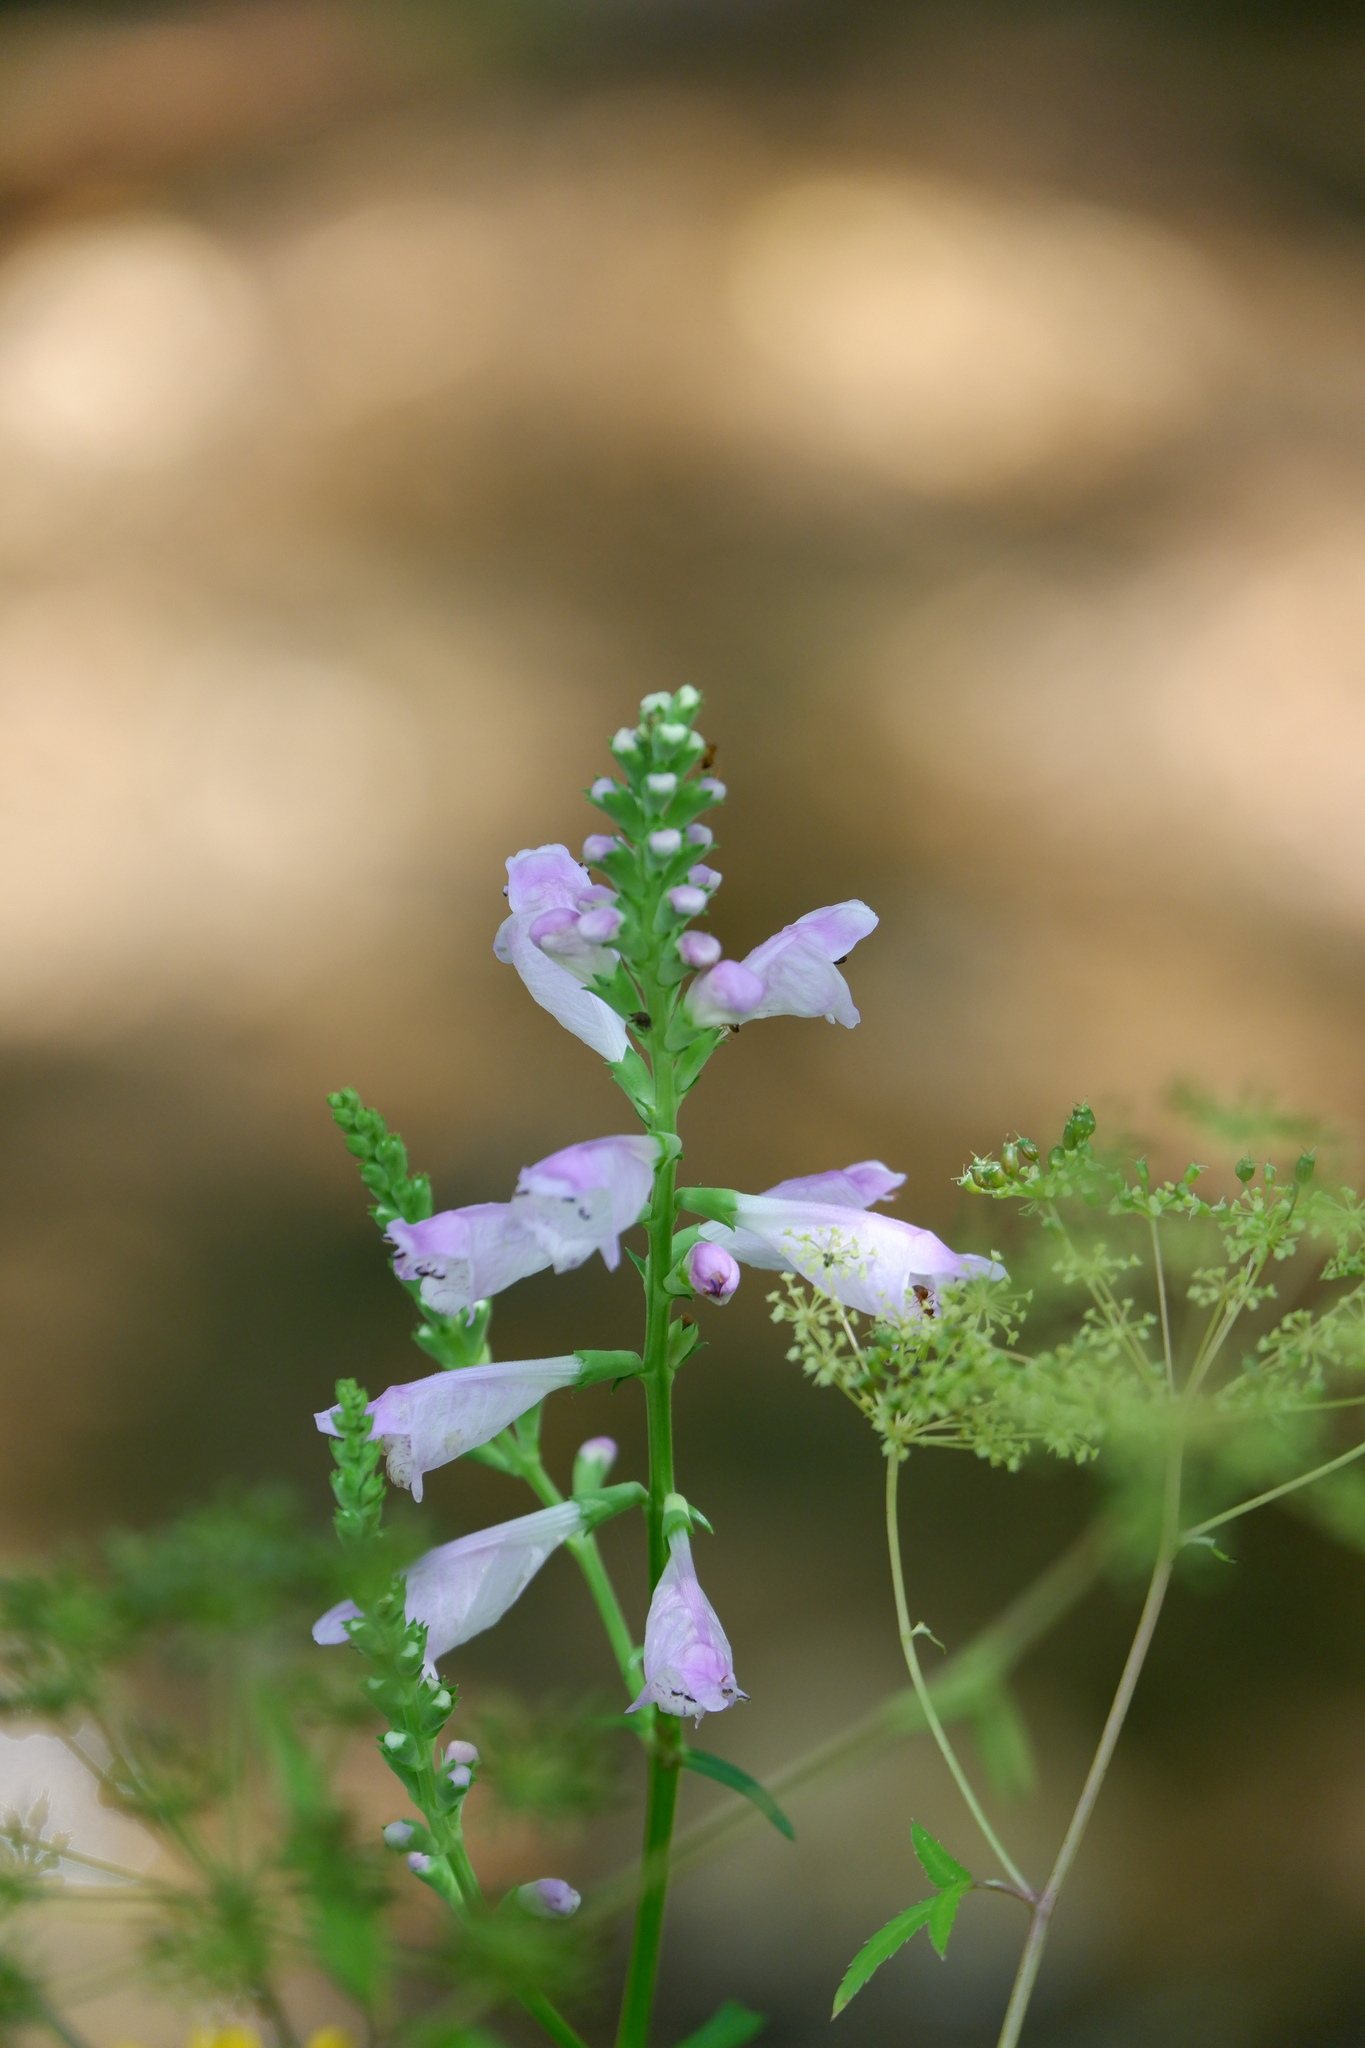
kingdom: Plantae
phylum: Tracheophyta
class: Magnoliopsida
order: Lamiales
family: Lamiaceae
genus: Physostegia
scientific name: Physostegia virginiana
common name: Obedient-plant
